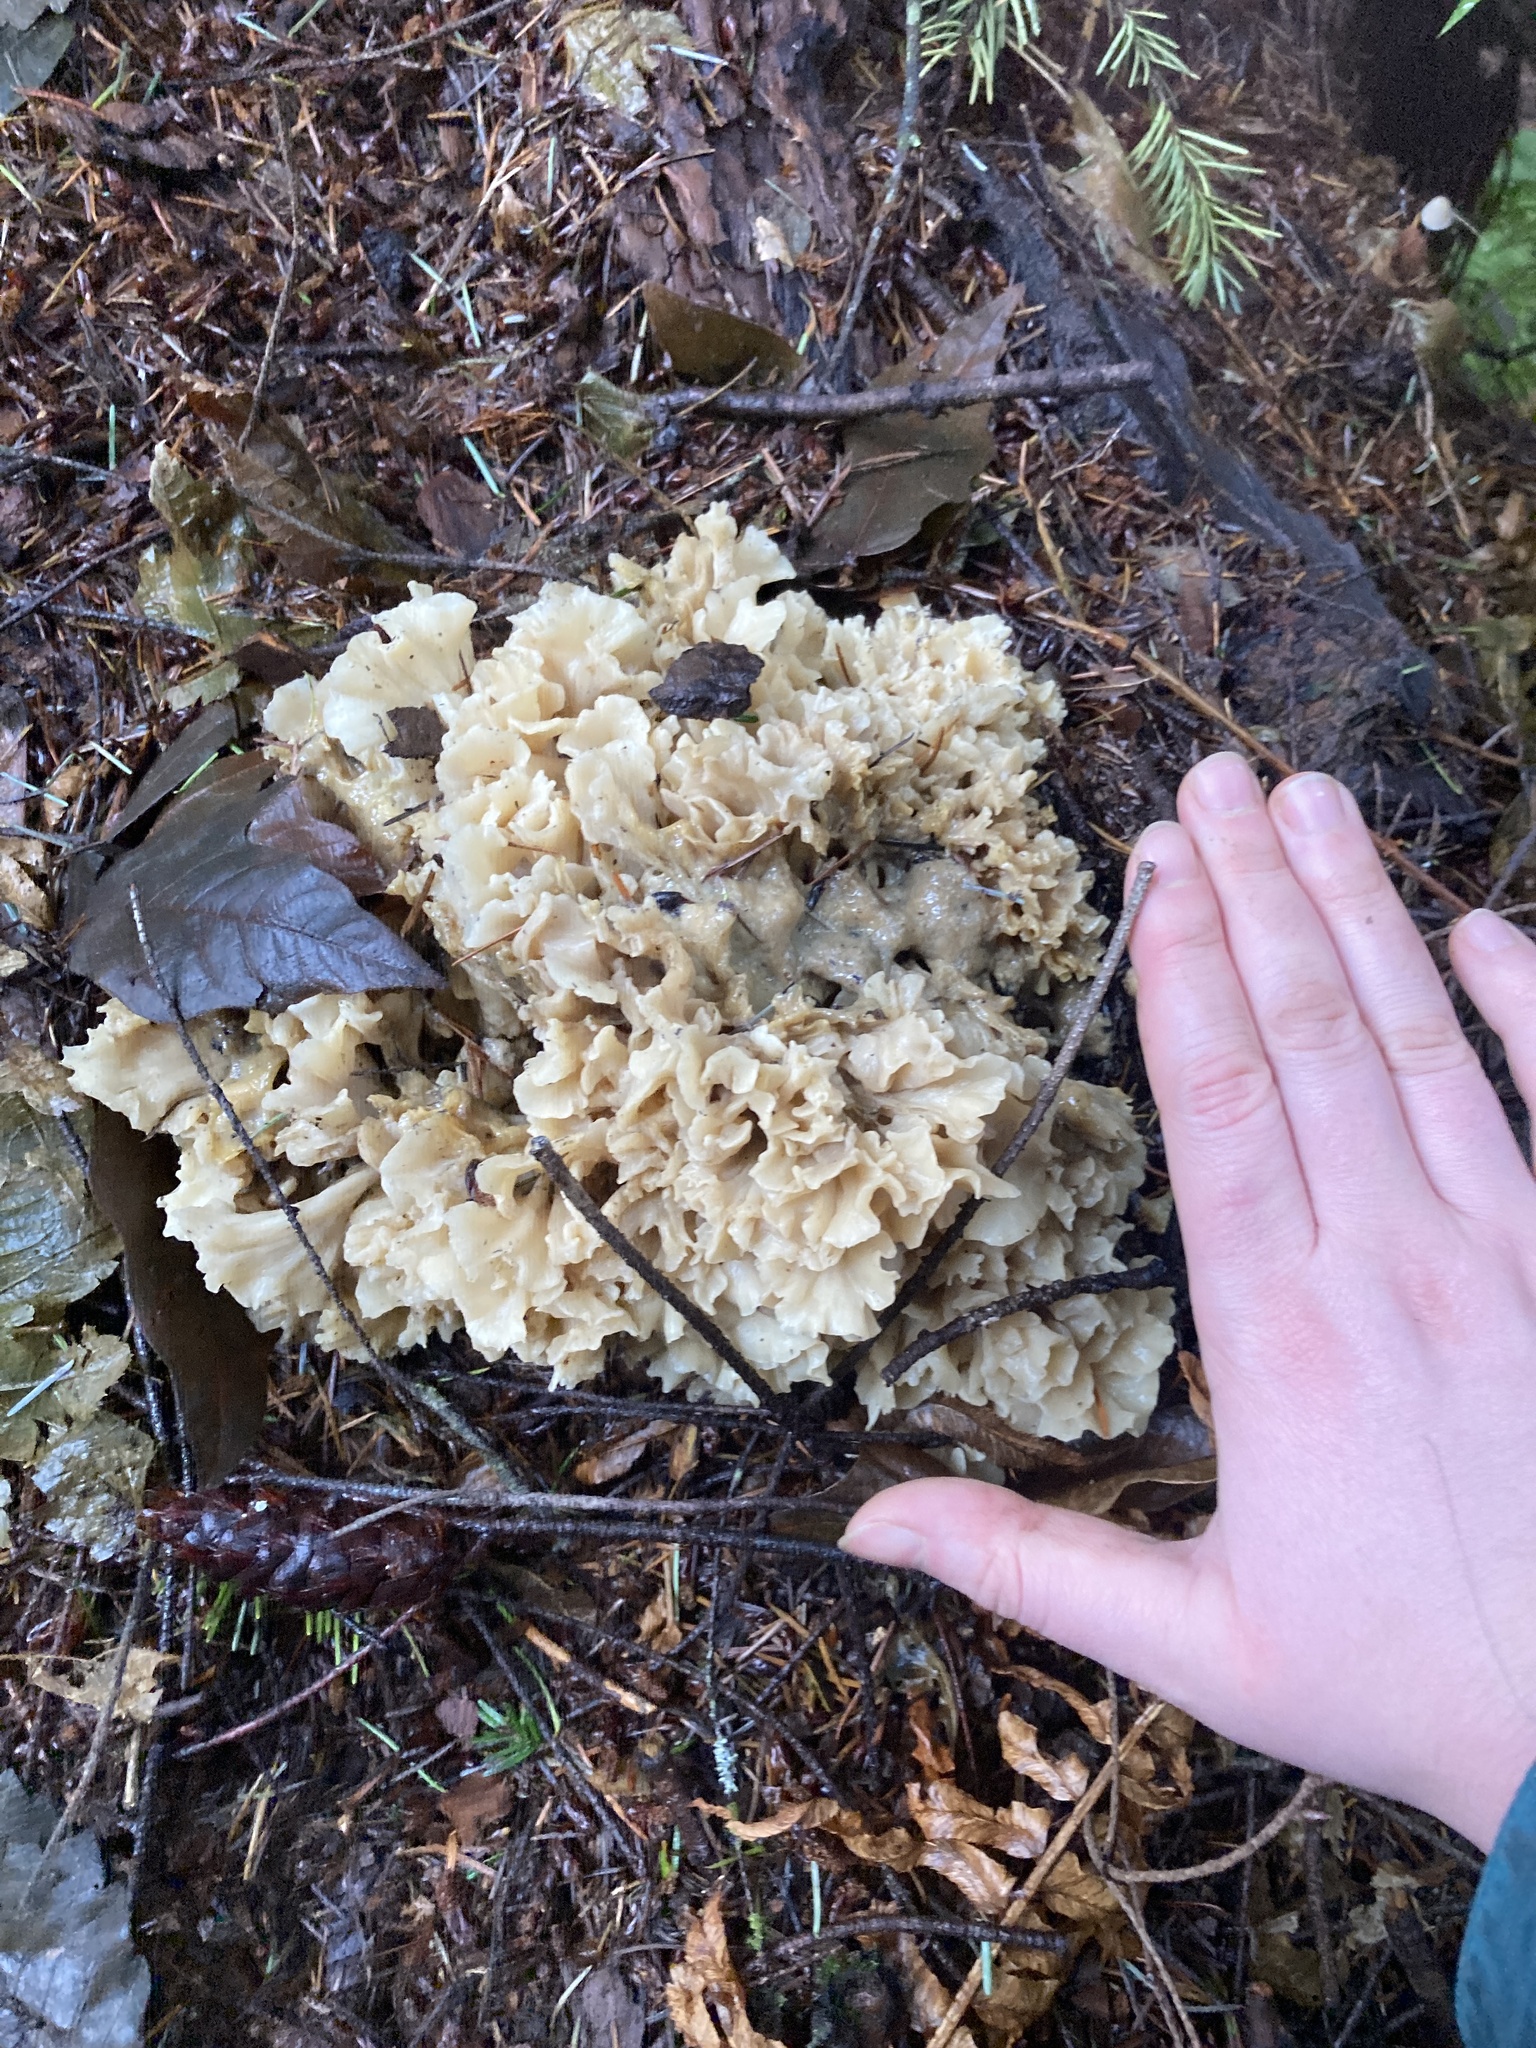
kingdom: Fungi
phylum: Basidiomycota
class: Agaricomycetes
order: Polyporales
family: Sparassidaceae
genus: Sparassis
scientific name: Sparassis radicata
